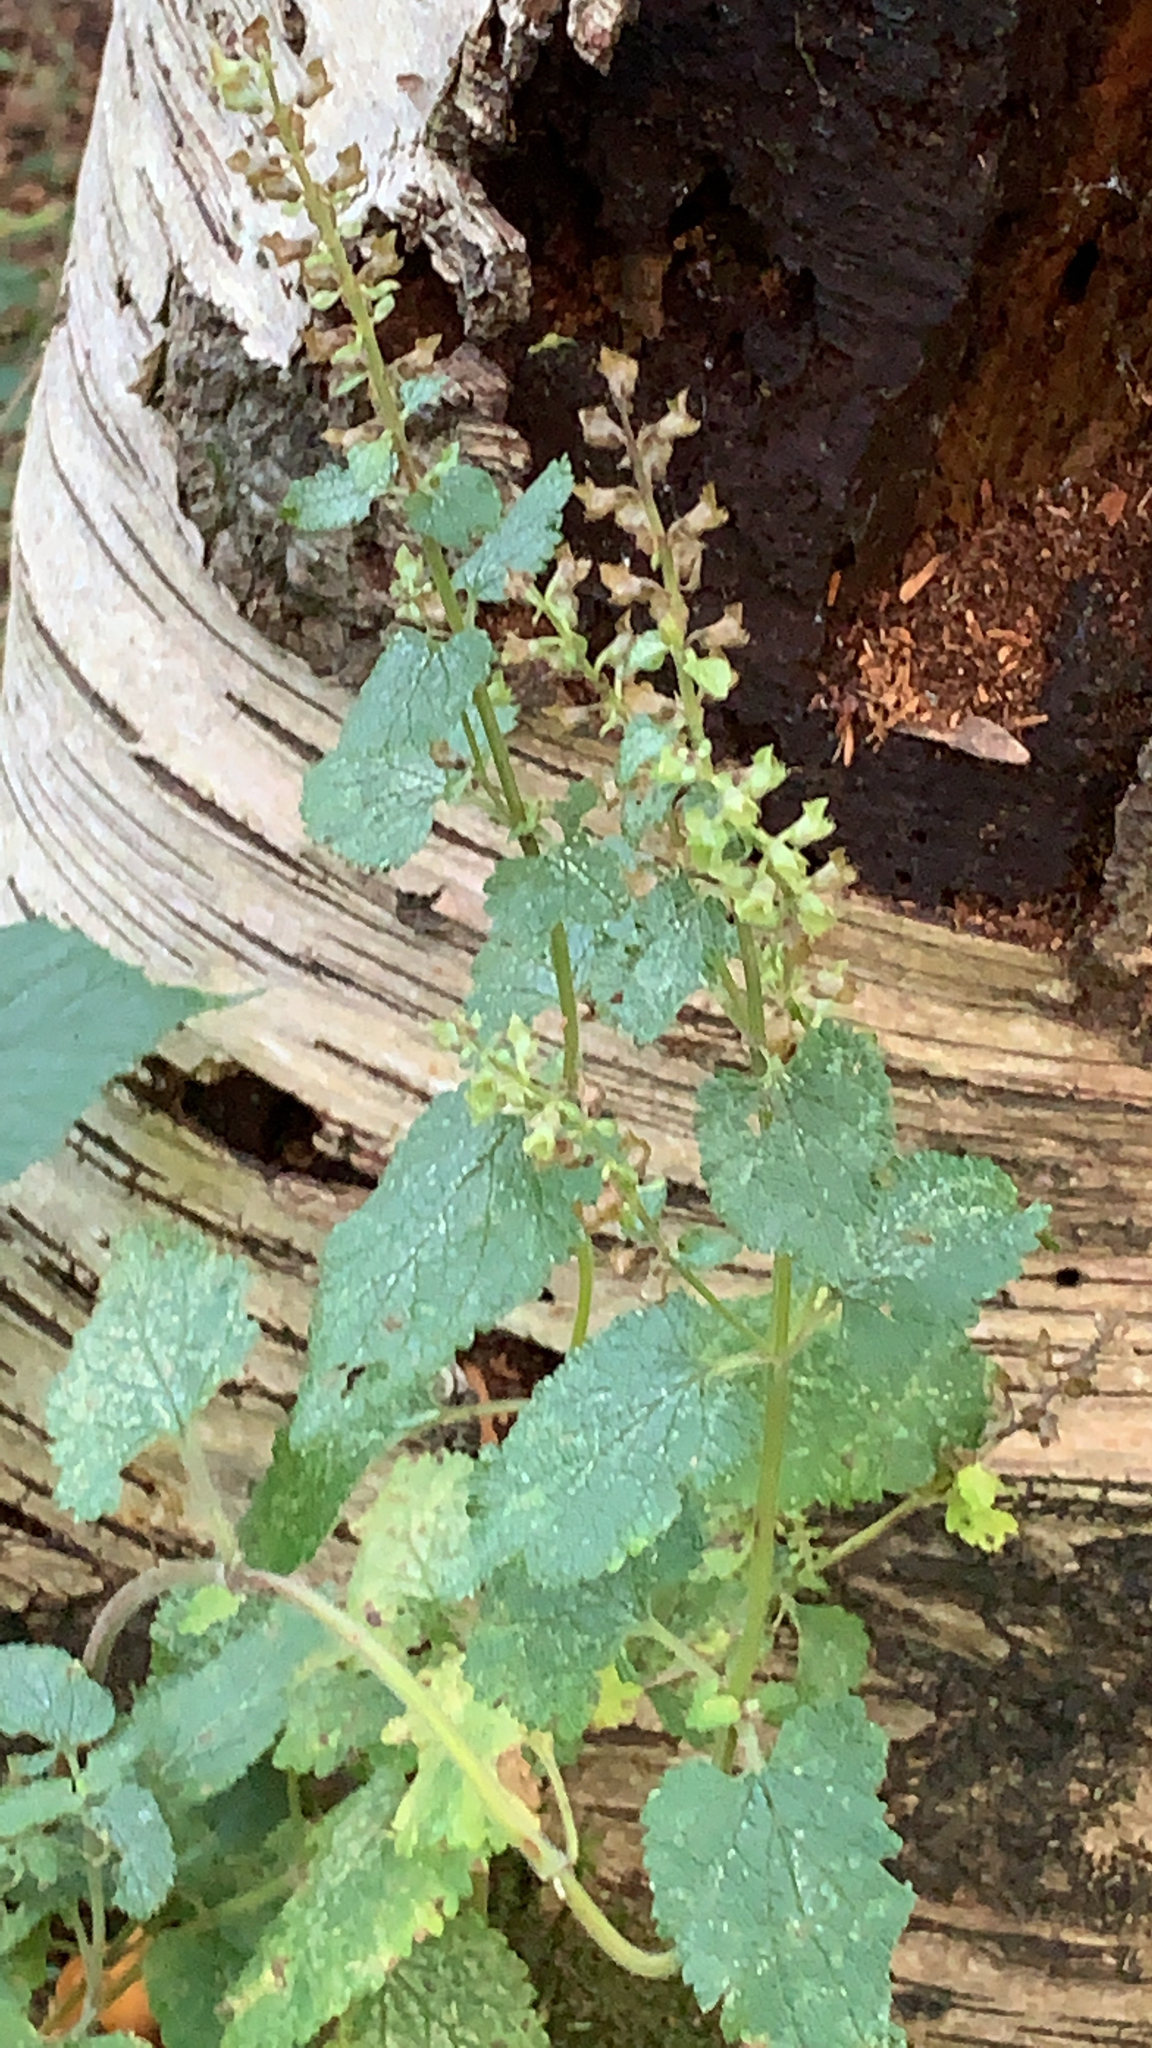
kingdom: Plantae
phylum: Tracheophyta
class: Magnoliopsida
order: Lamiales
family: Lamiaceae
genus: Teucrium
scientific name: Teucrium scorodonia
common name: Woodland germander
